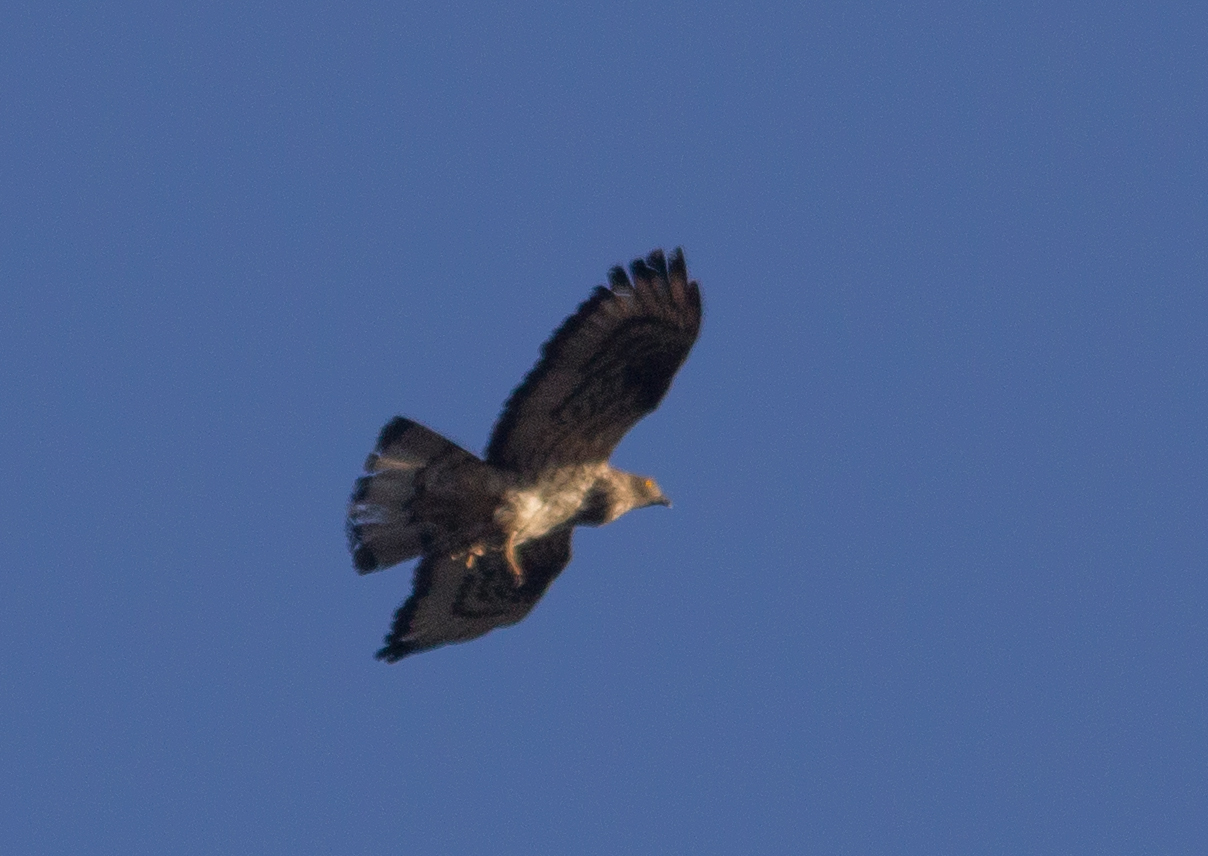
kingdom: Animalia
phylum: Chordata
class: Aves
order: Accipitriformes
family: Accipitridae
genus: Pernis
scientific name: Pernis apivorus
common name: European honey buzzard
